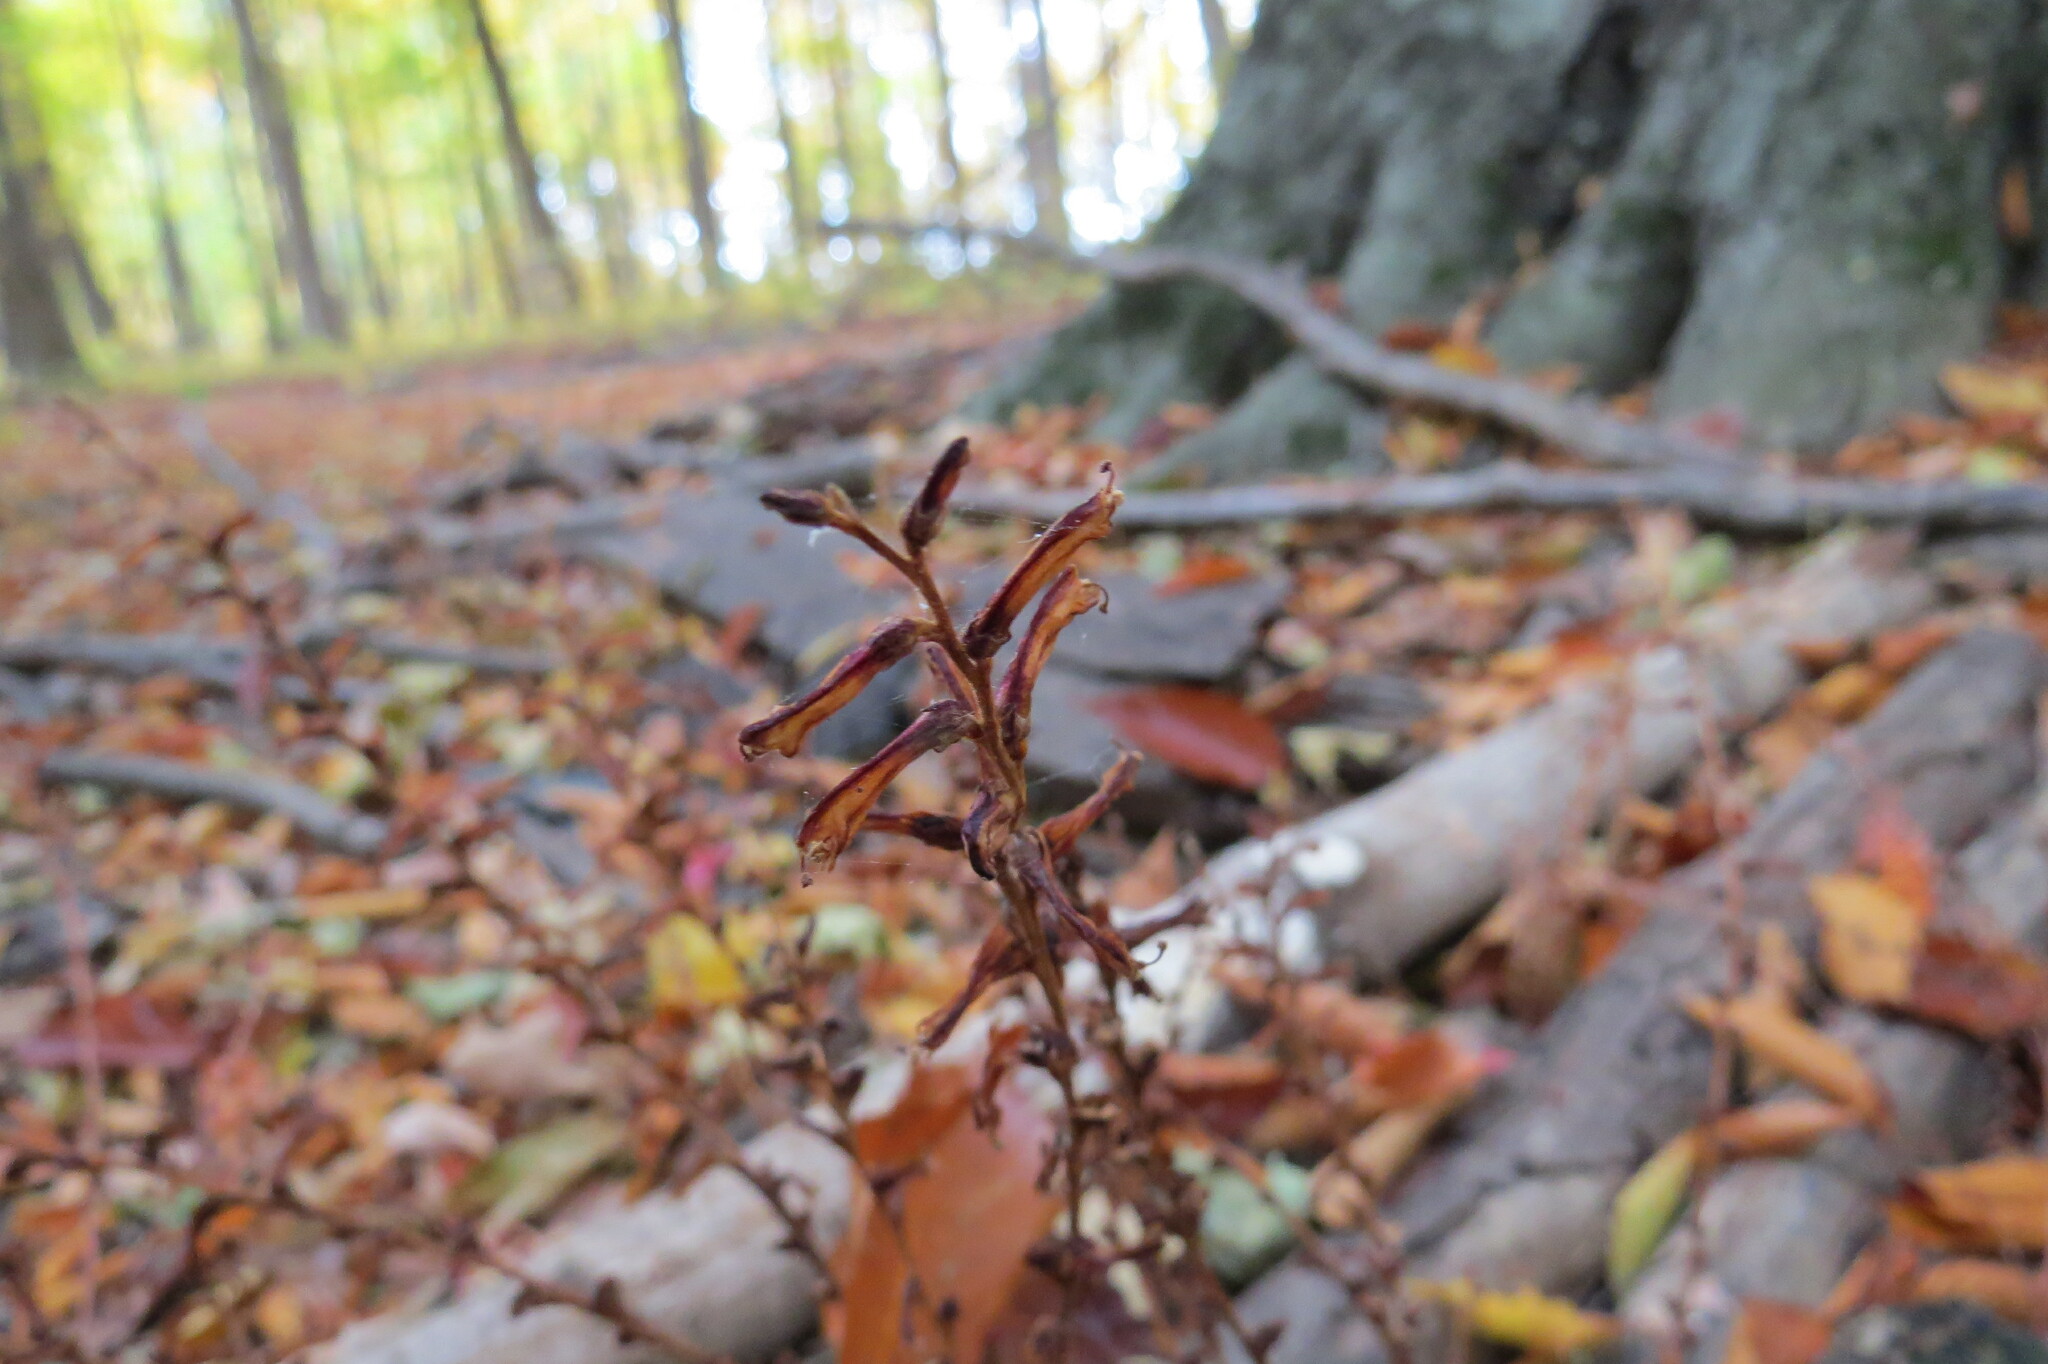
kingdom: Plantae
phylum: Tracheophyta
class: Magnoliopsida
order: Lamiales
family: Orobanchaceae
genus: Epifagus
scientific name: Epifagus virginiana
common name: Beechdrops
